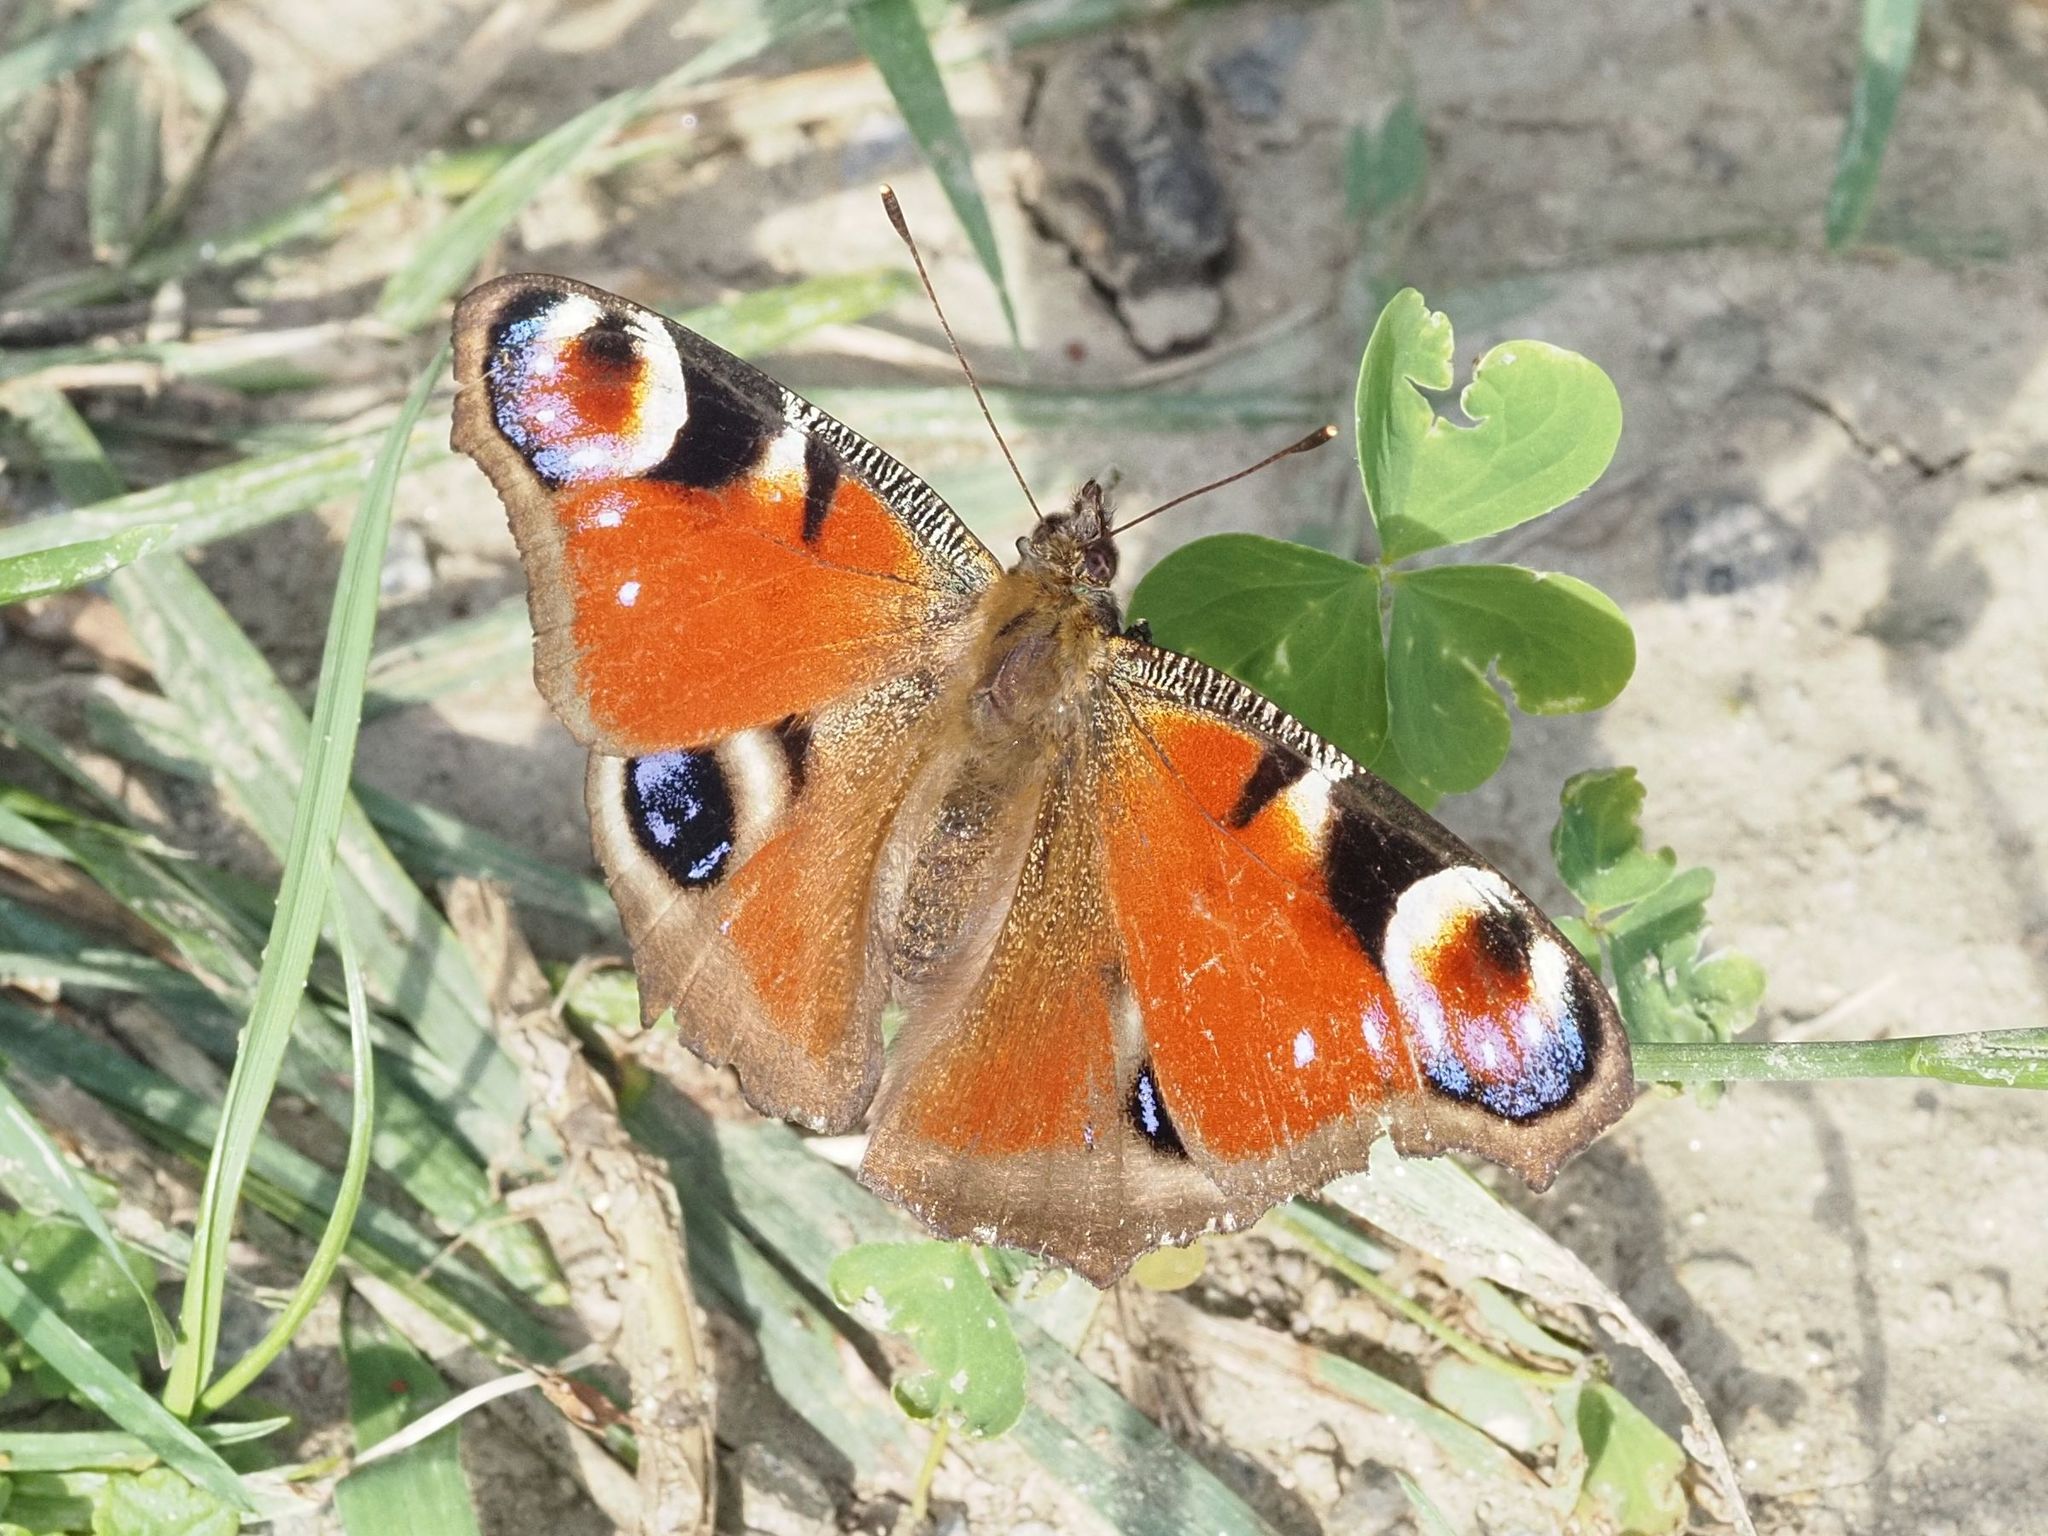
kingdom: Animalia
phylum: Arthropoda
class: Insecta
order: Lepidoptera
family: Nymphalidae
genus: Aglais
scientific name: Aglais io
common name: Peacock
